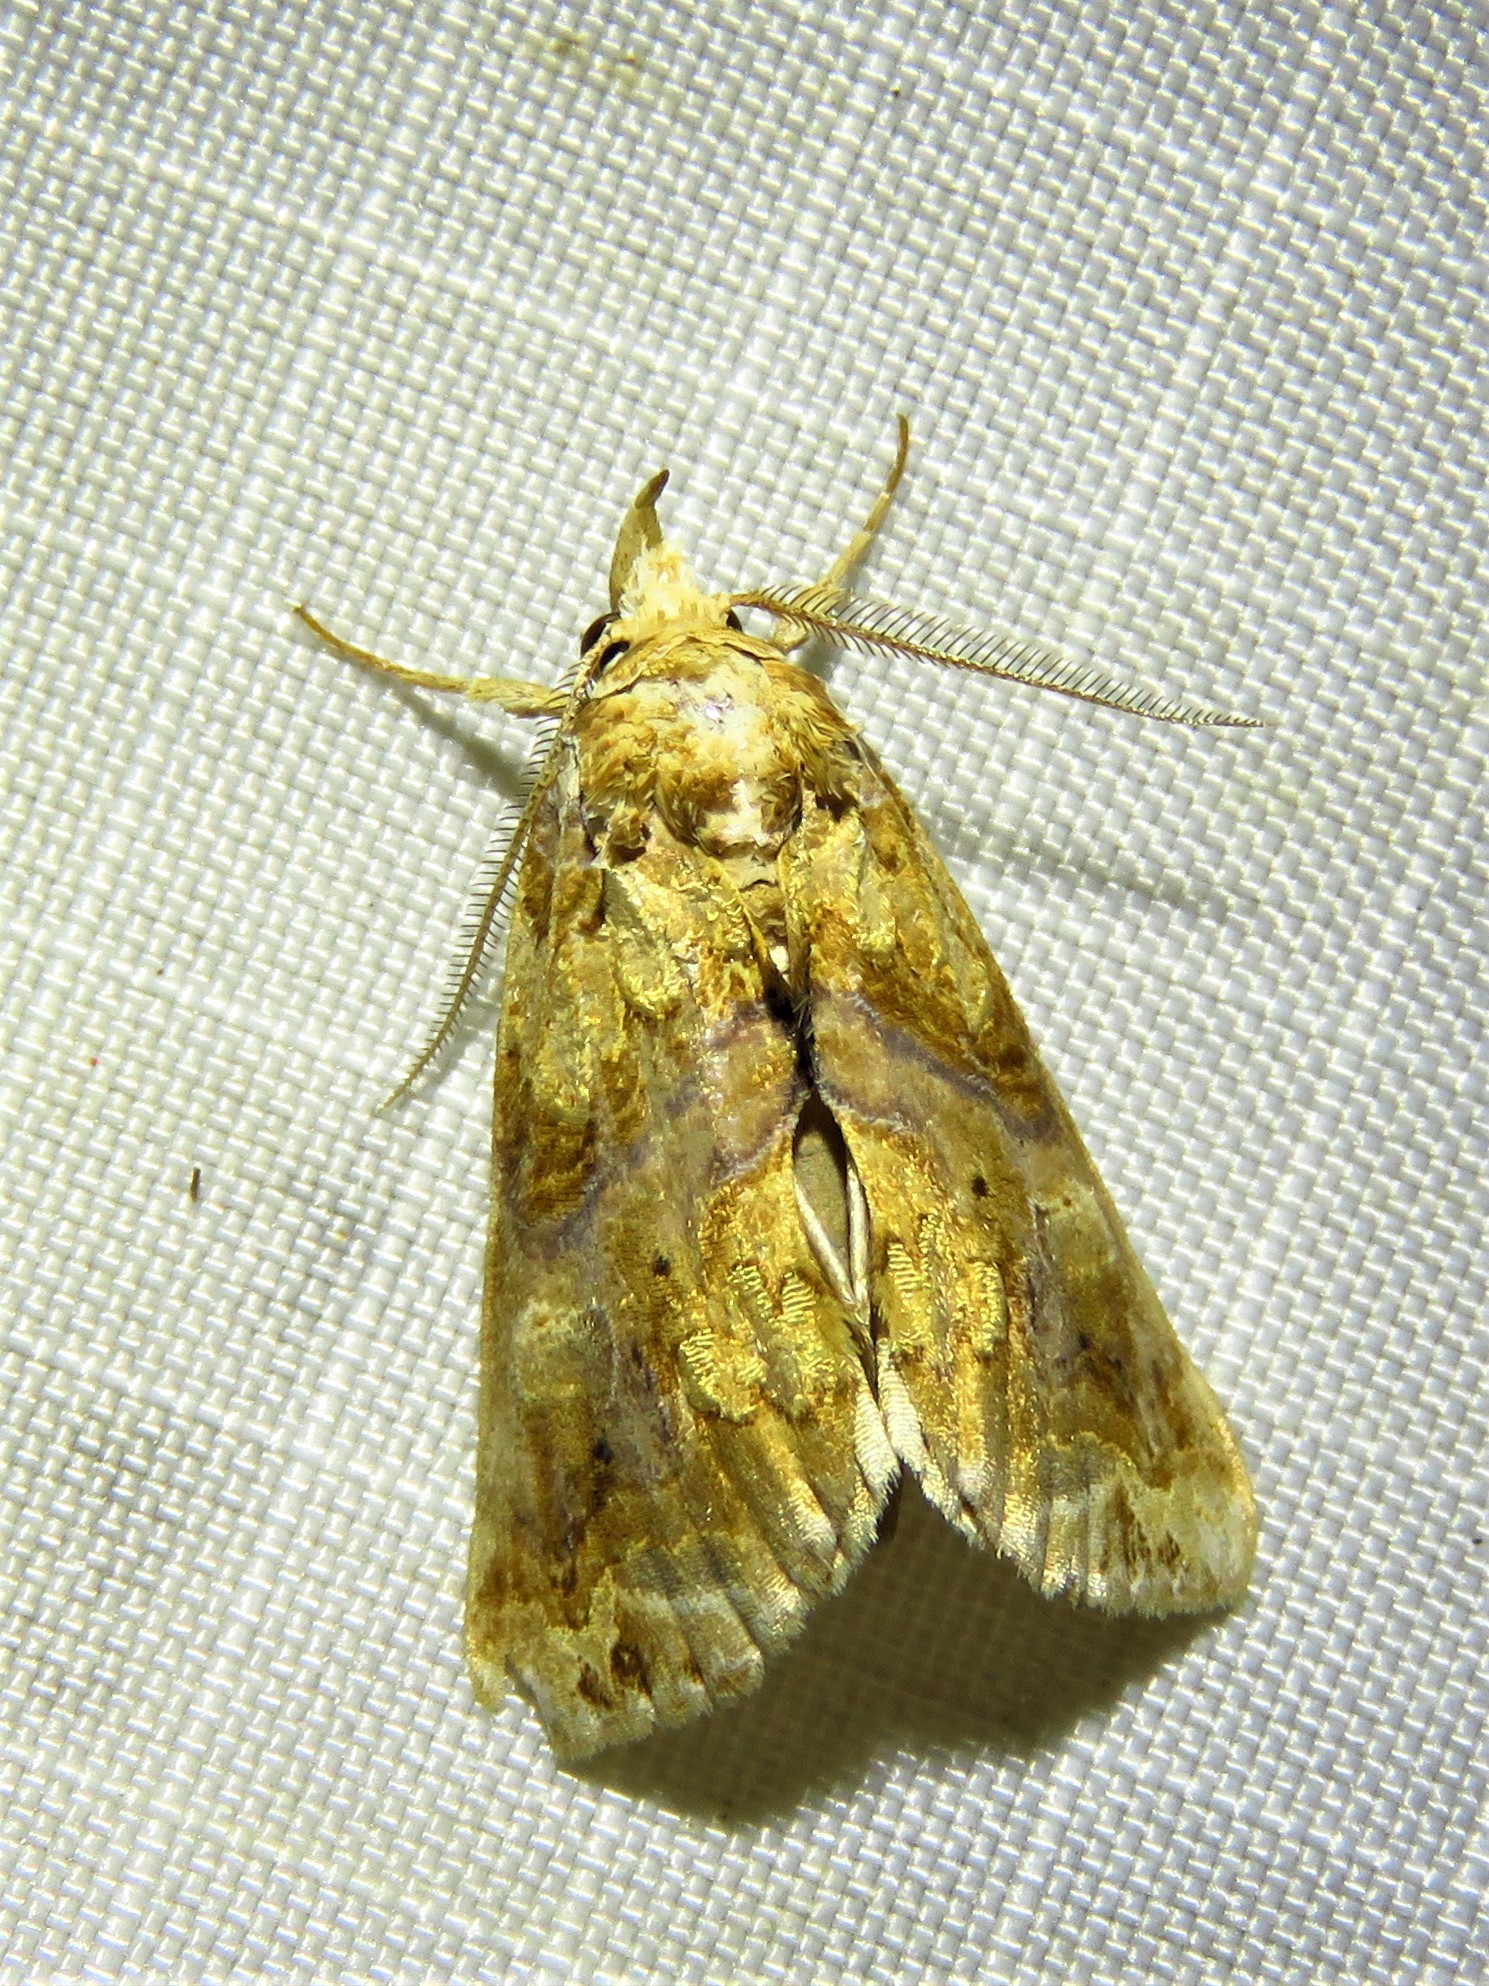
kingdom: Animalia
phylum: Arthropoda
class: Insecta
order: Lepidoptera
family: Erebidae
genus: Plusiodonta
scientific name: Plusiodonta compressipalpis
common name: Moonseed moth
